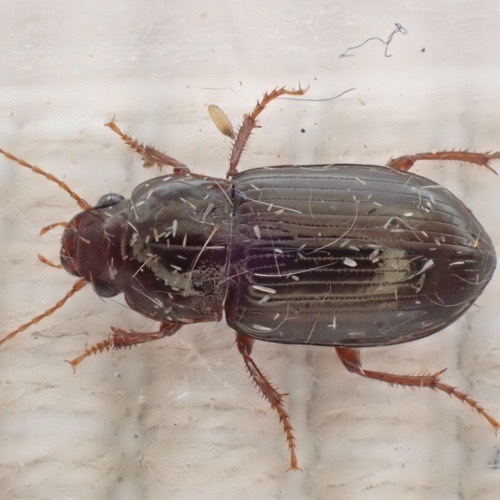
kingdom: Animalia
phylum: Arthropoda
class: Insecta
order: Coleoptera
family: Carabidae
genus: Amara
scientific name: Amara apricaria
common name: Exposed sun beetle
